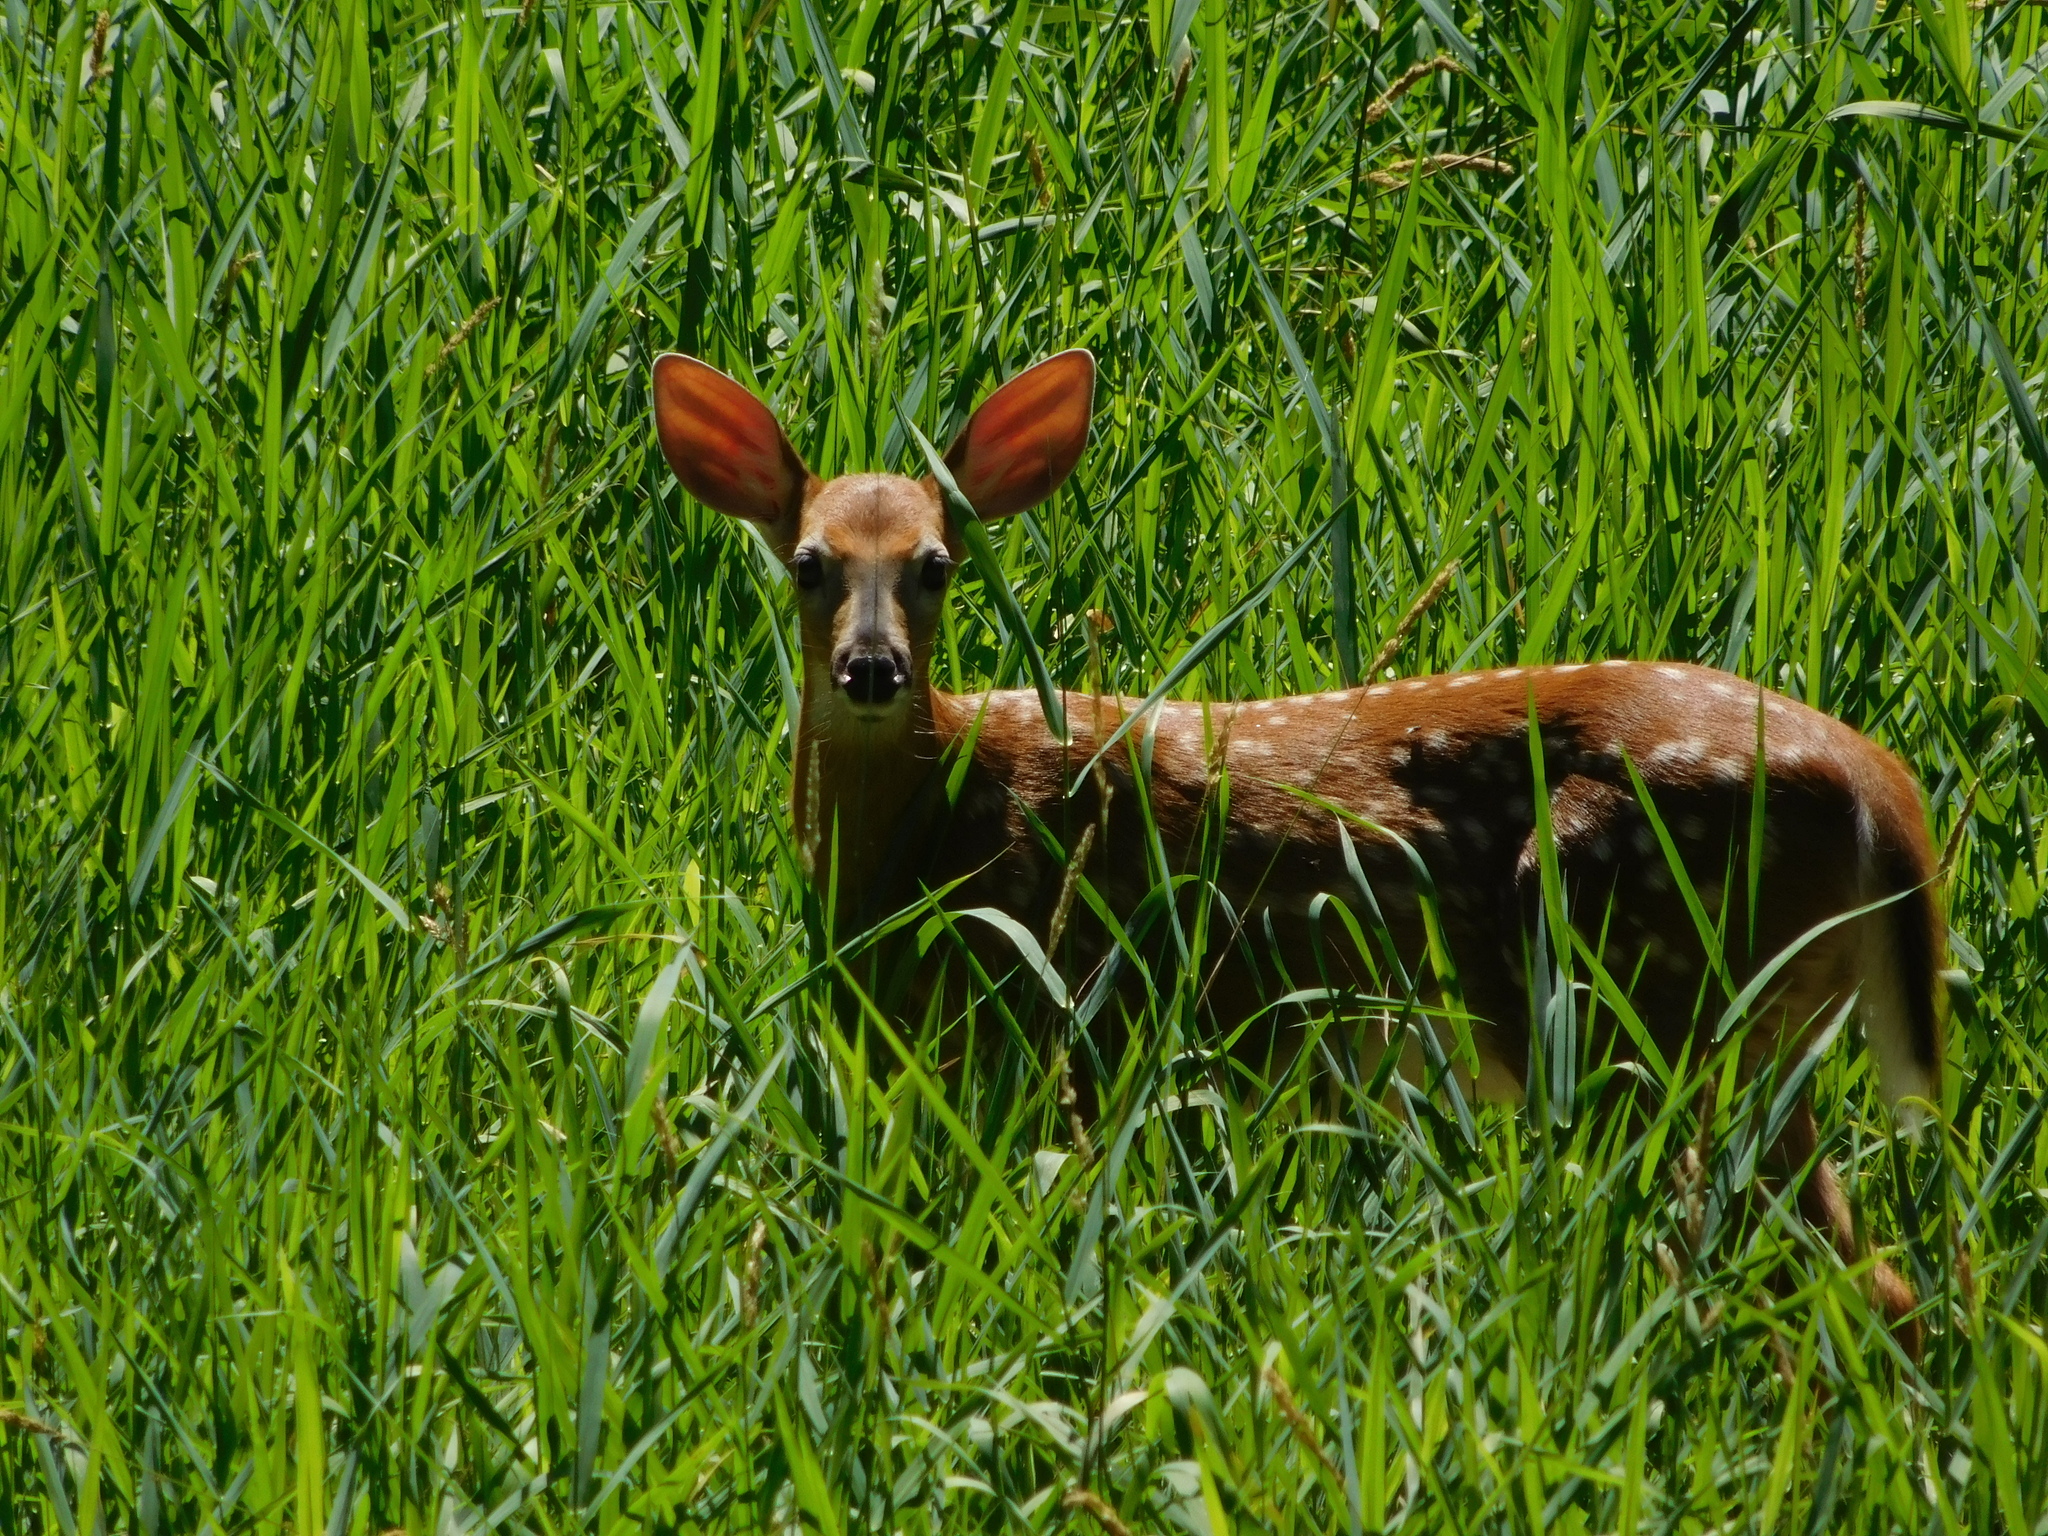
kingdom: Animalia
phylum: Chordata
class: Mammalia
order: Artiodactyla
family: Cervidae
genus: Odocoileus
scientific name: Odocoileus virginianus
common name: White-tailed deer
